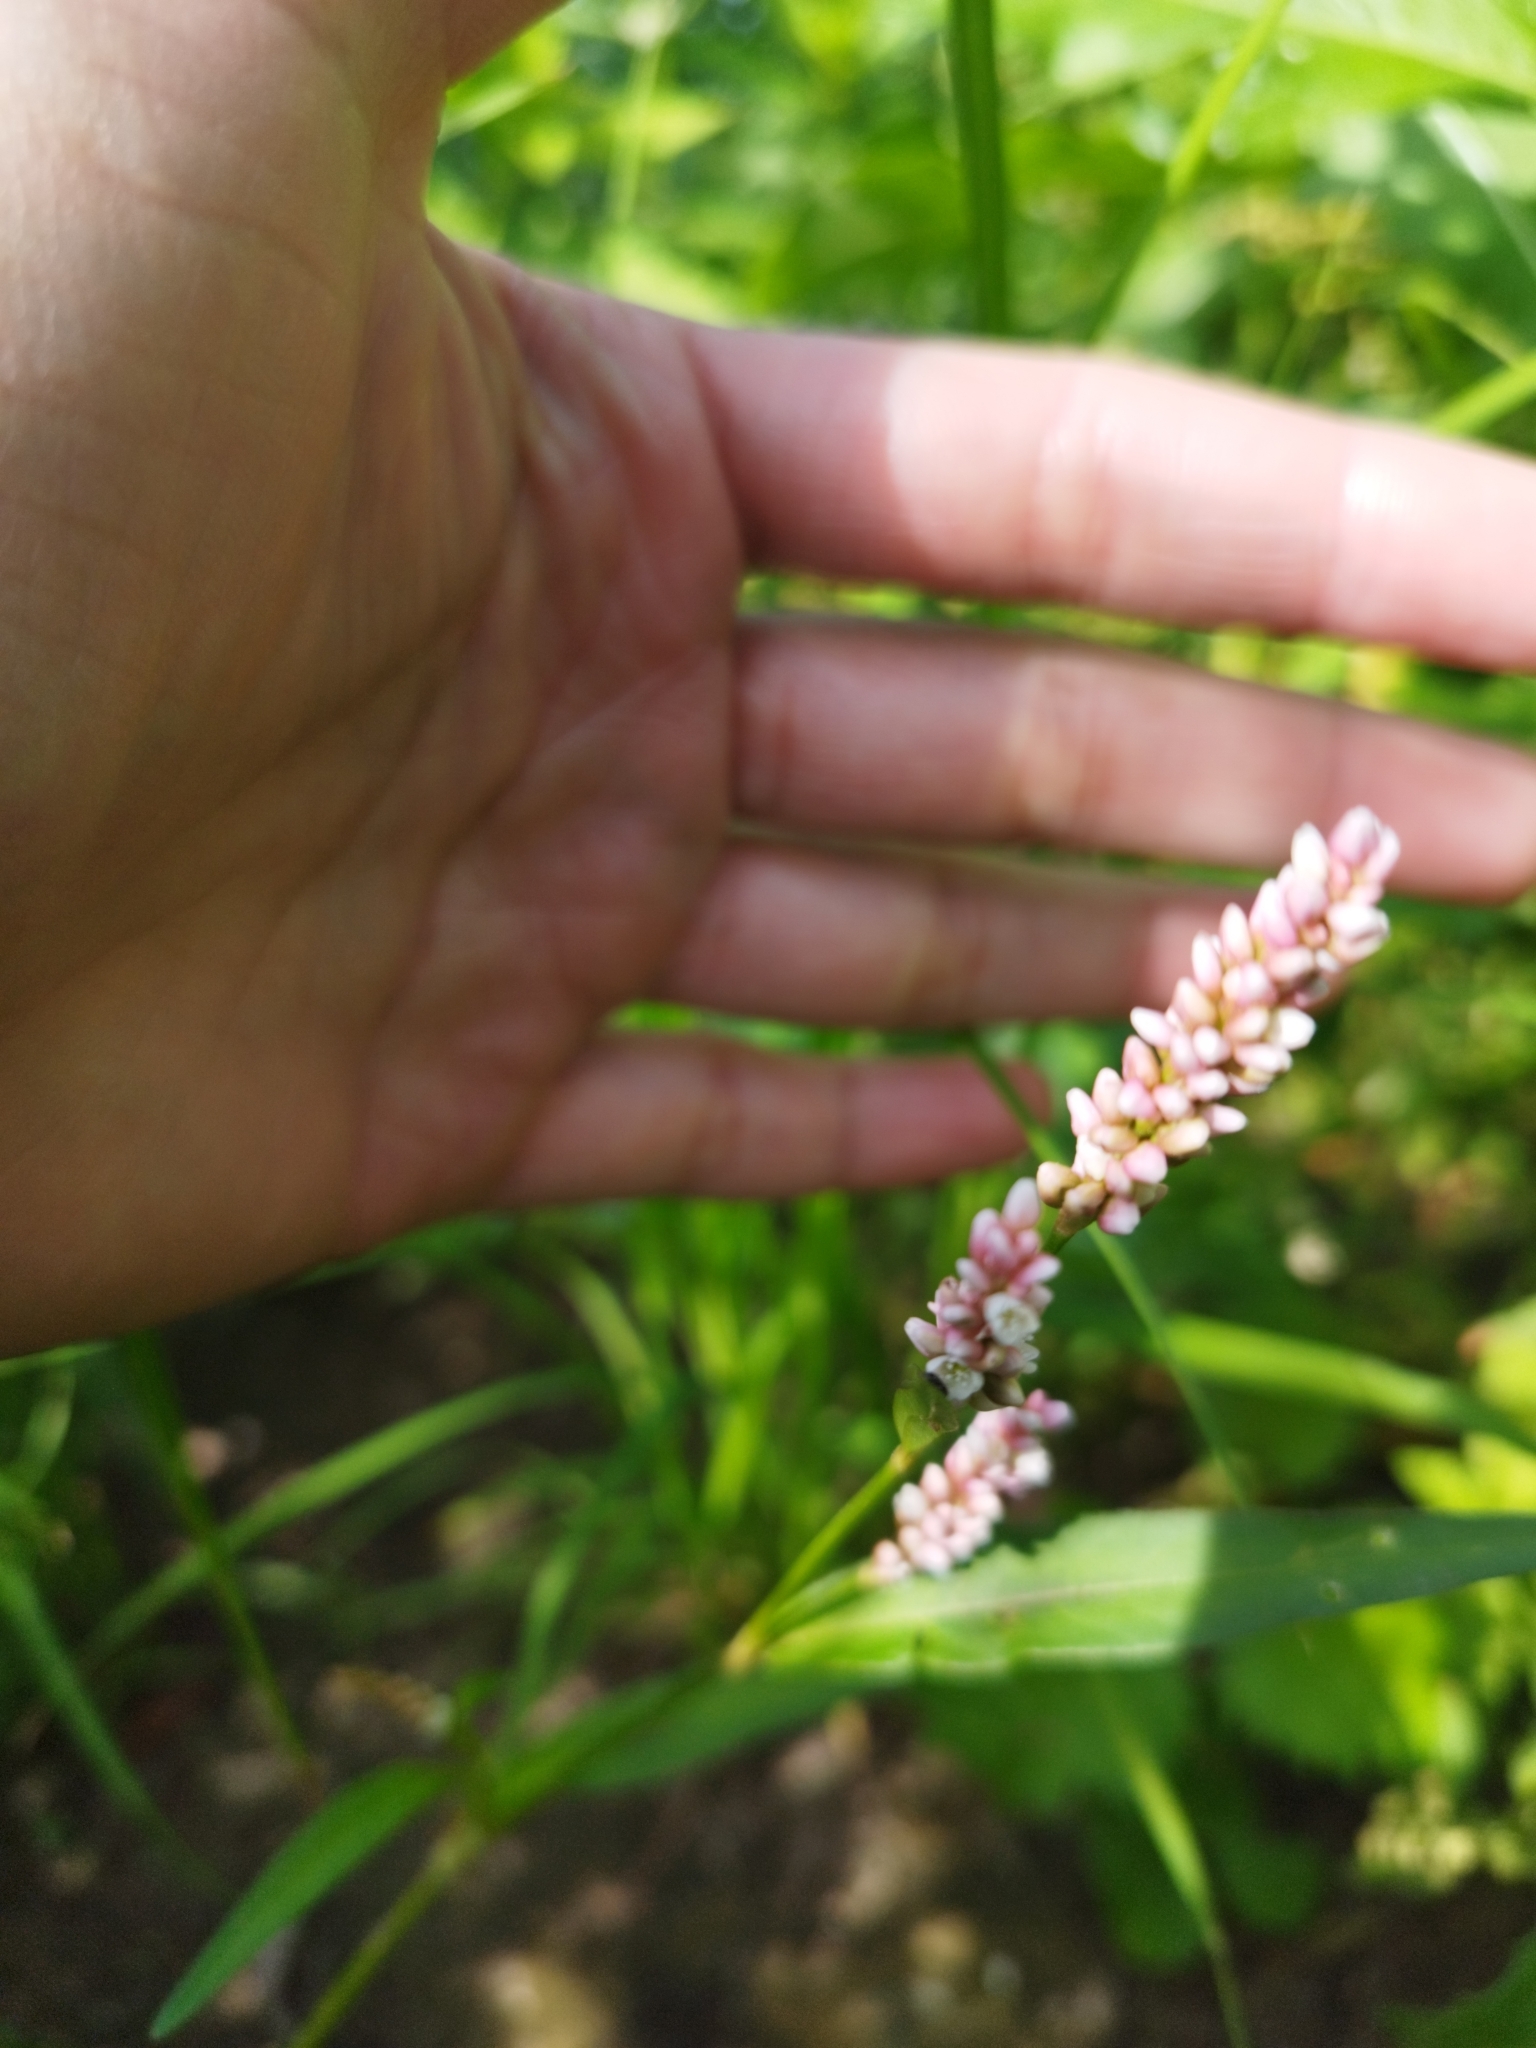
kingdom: Plantae
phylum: Tracheophyta
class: Magnoliopsida
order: Caryophyllales
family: Polygonaceae
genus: Persicaria
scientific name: Persicaria maculosa
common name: Redshank
